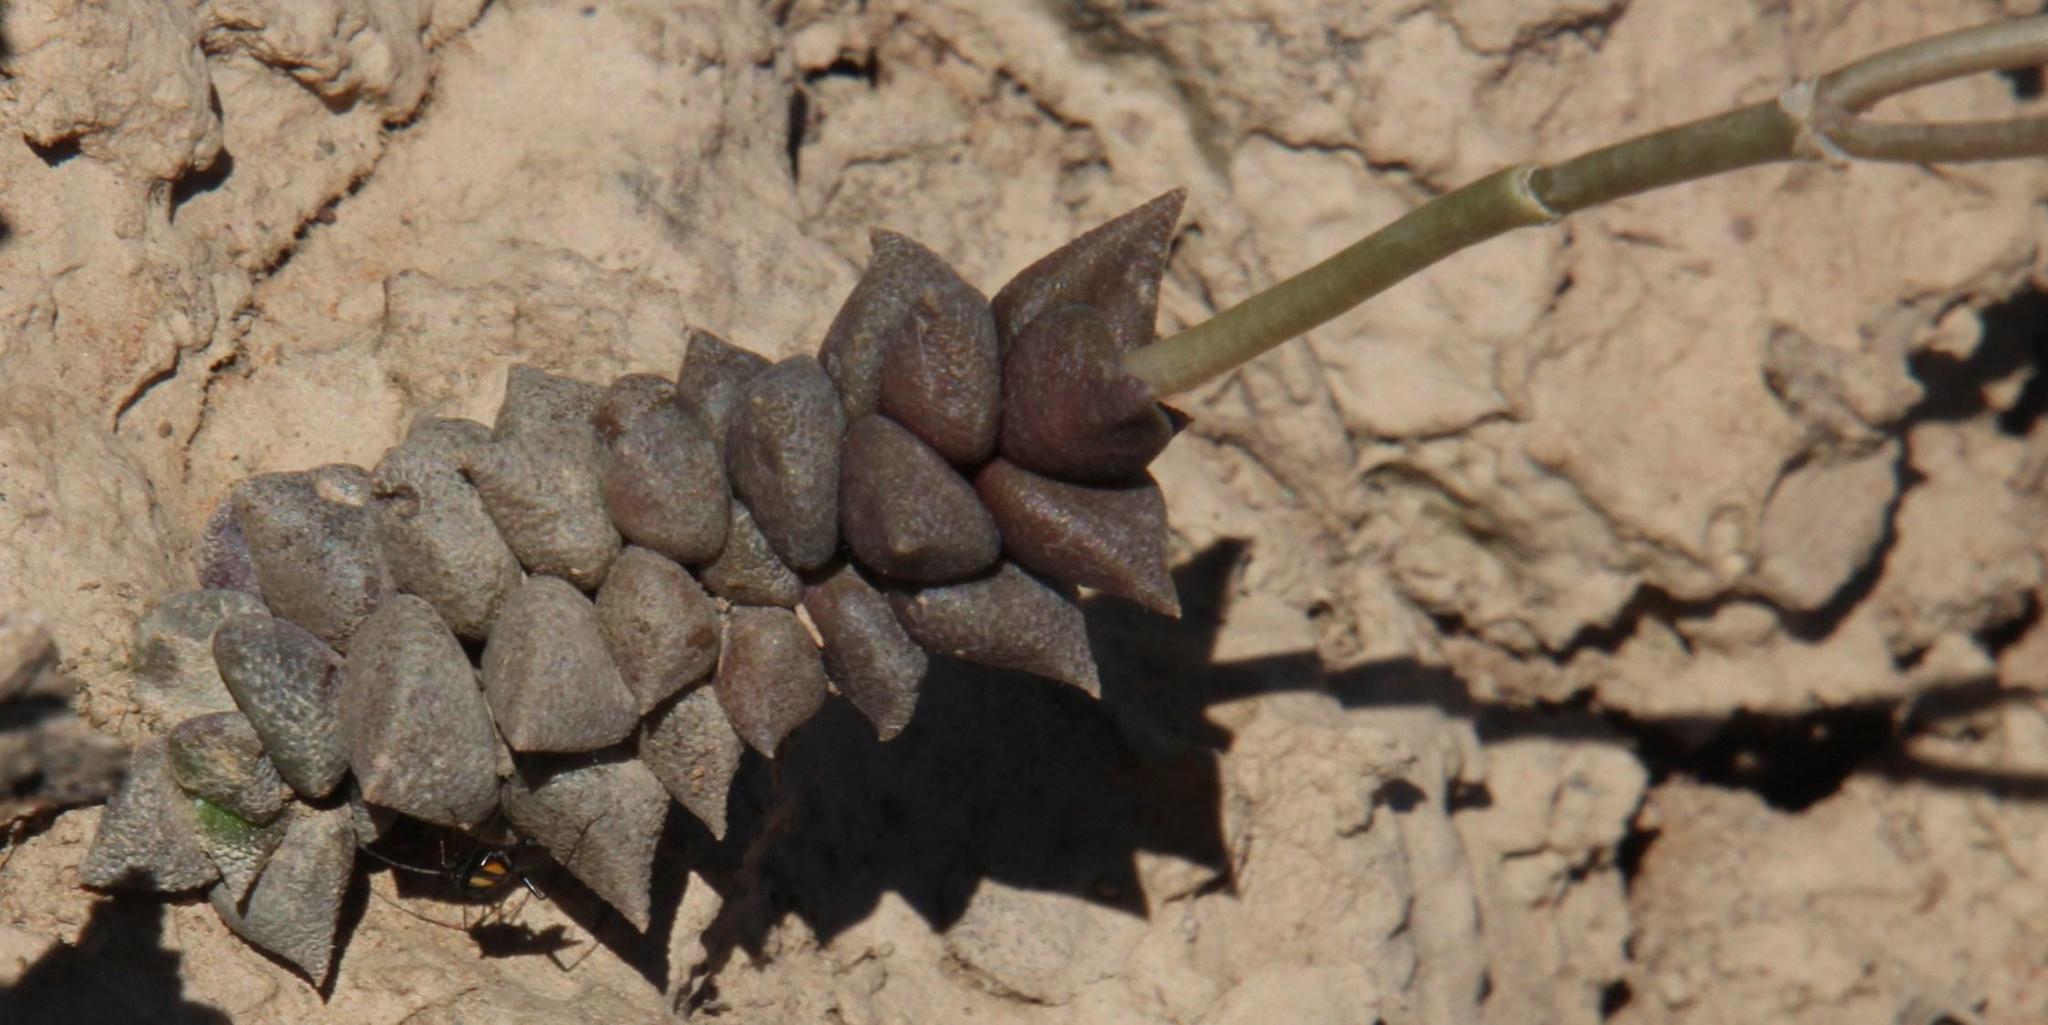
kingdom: Plantae
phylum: Tracheophyta
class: Magnoliopsida
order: Caryophyllales
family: Anacampserotaceae
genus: Anacampseros
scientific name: Anacampseros arachnoides
